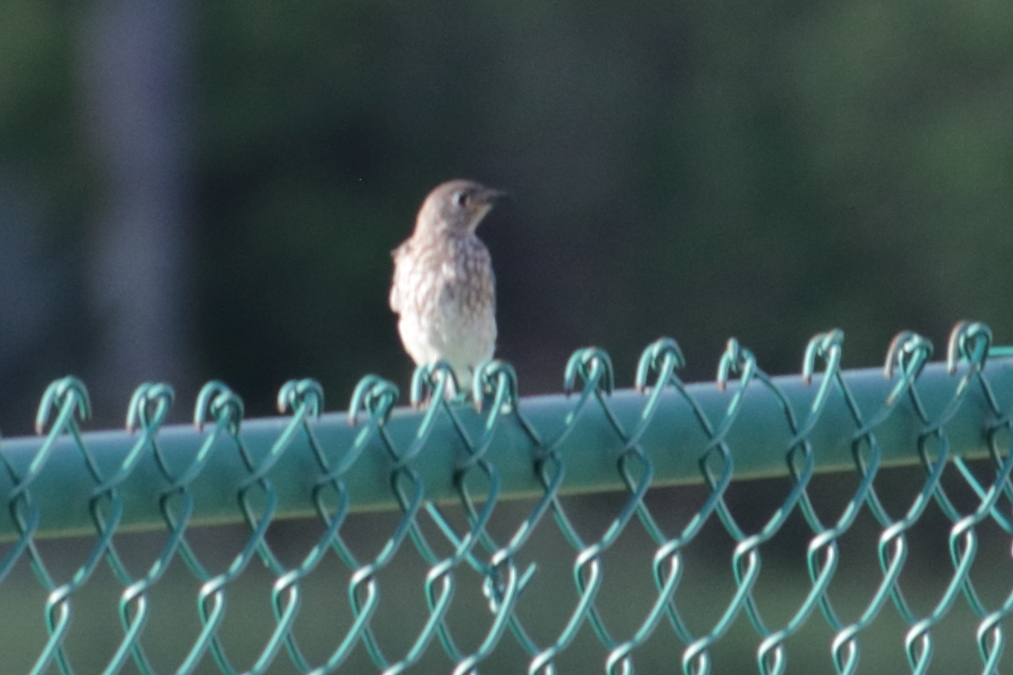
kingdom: Animalia
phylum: Chordata
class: Aves
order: Passeriformes
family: Turdidae
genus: Sialia
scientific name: Sialia sialis
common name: Eastern bluebird
